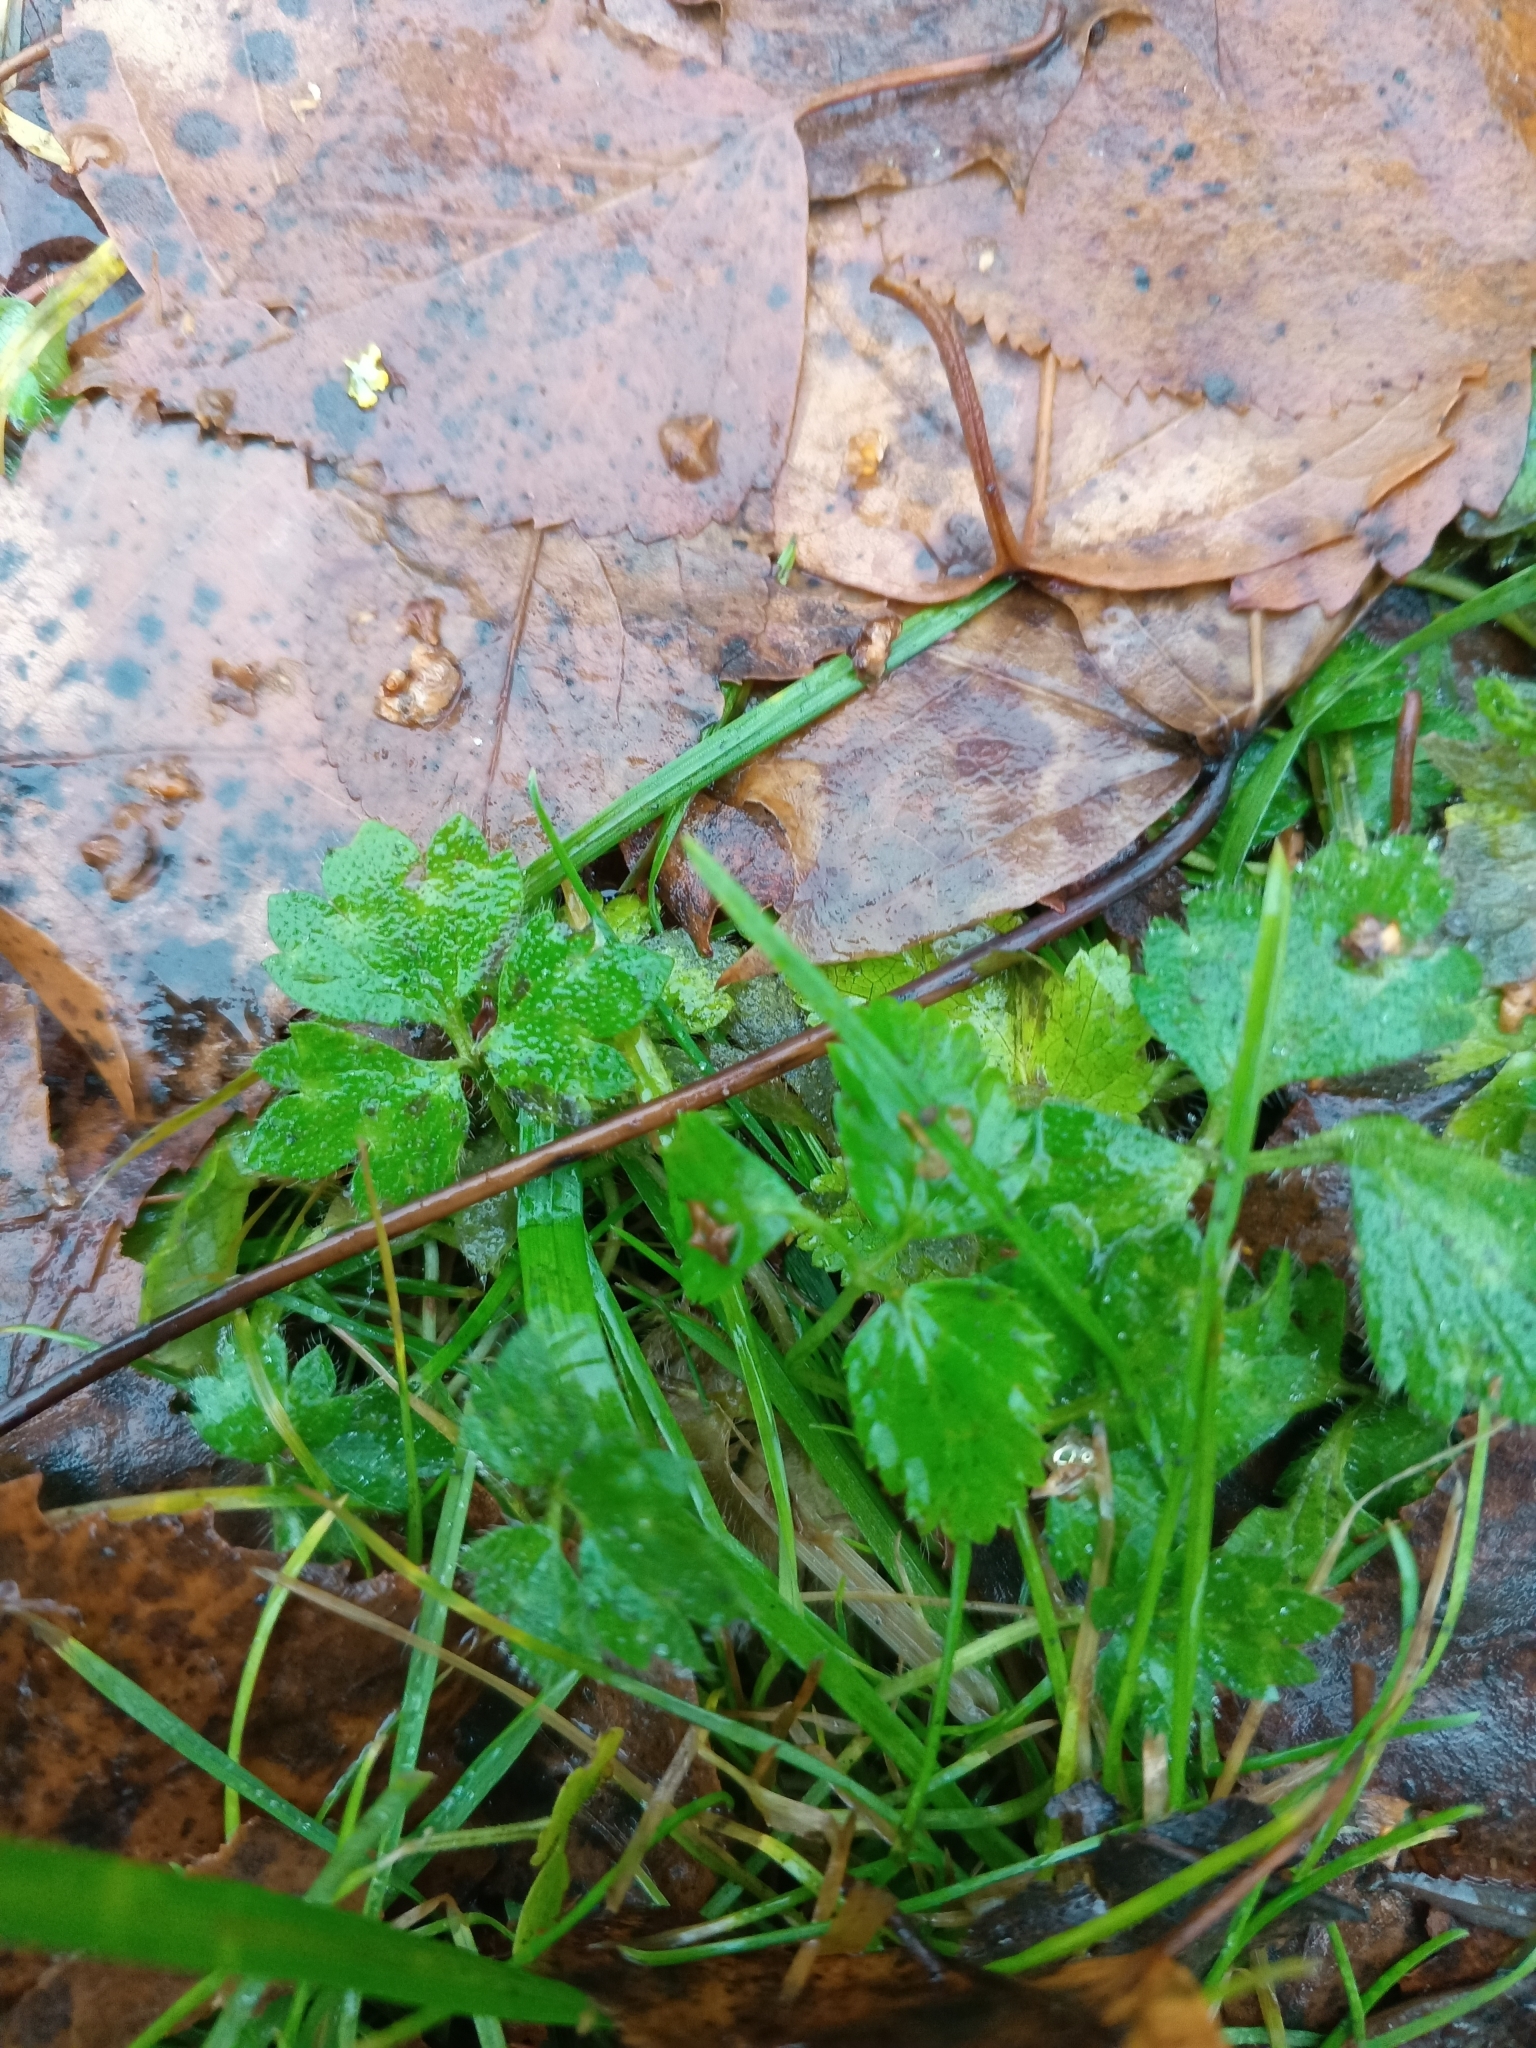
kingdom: Plantae
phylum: Tracheophyta
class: Magnoliopsida
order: Ranunculales
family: Ranunculaceae
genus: Ranunculus
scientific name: Ranunculus repens
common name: Creeping buttercup
